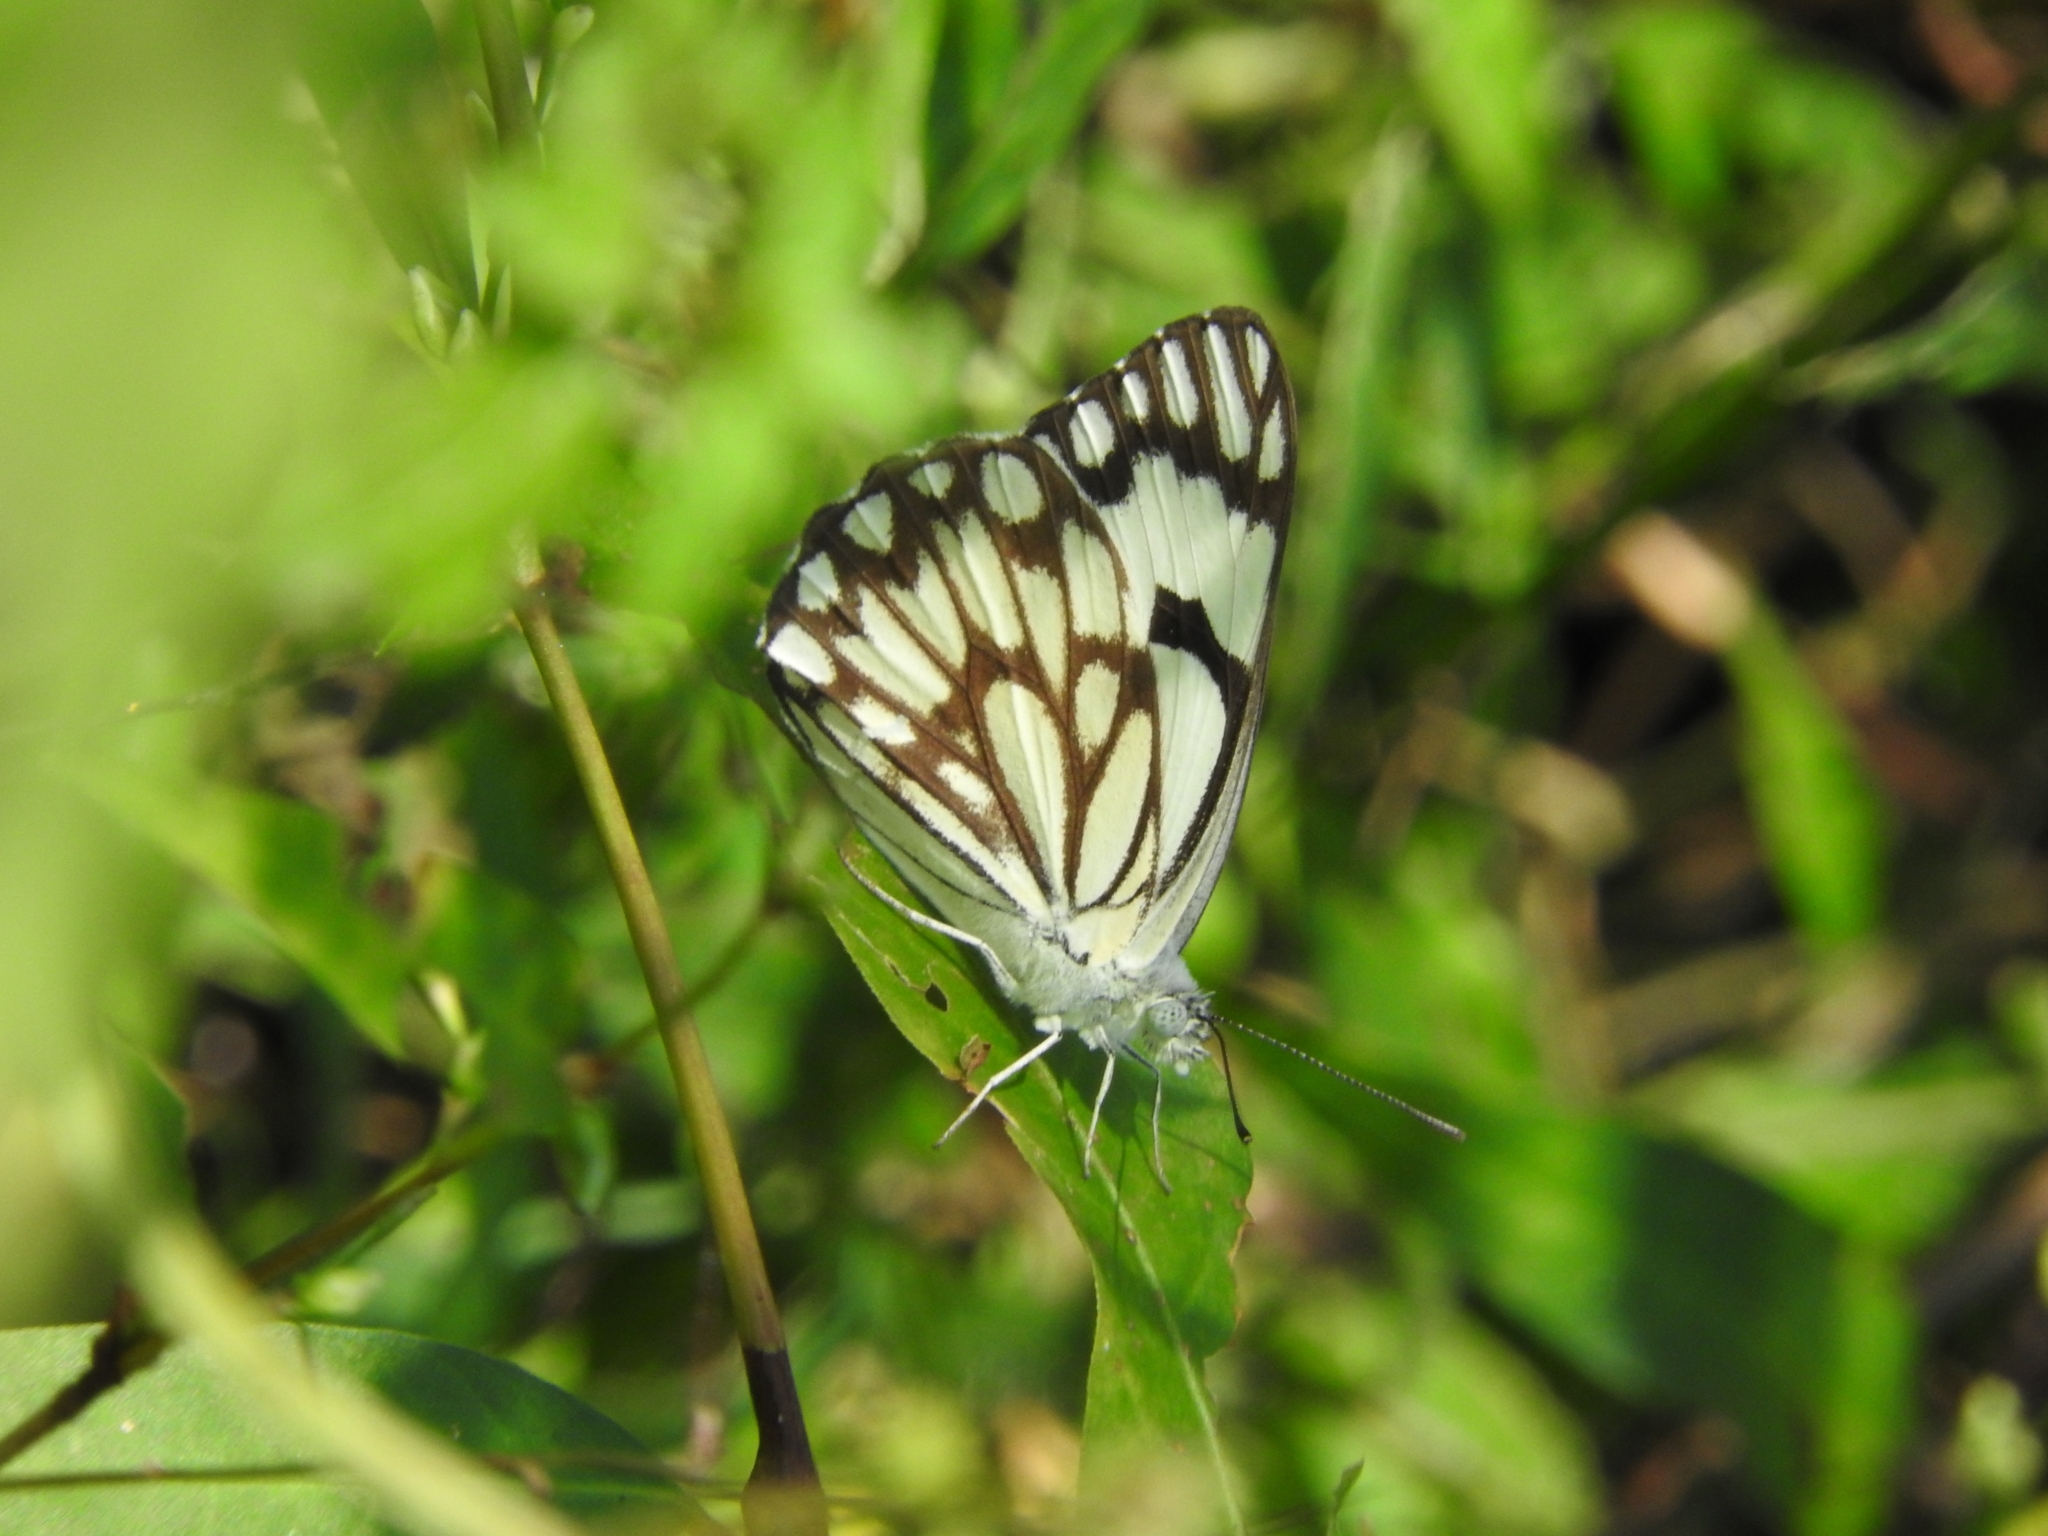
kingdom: Animalia
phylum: Arthropoda
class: Insecta
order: Lepidoptera
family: Pieridae
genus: Belenois
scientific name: Belenois aurota
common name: Brown-veined white
